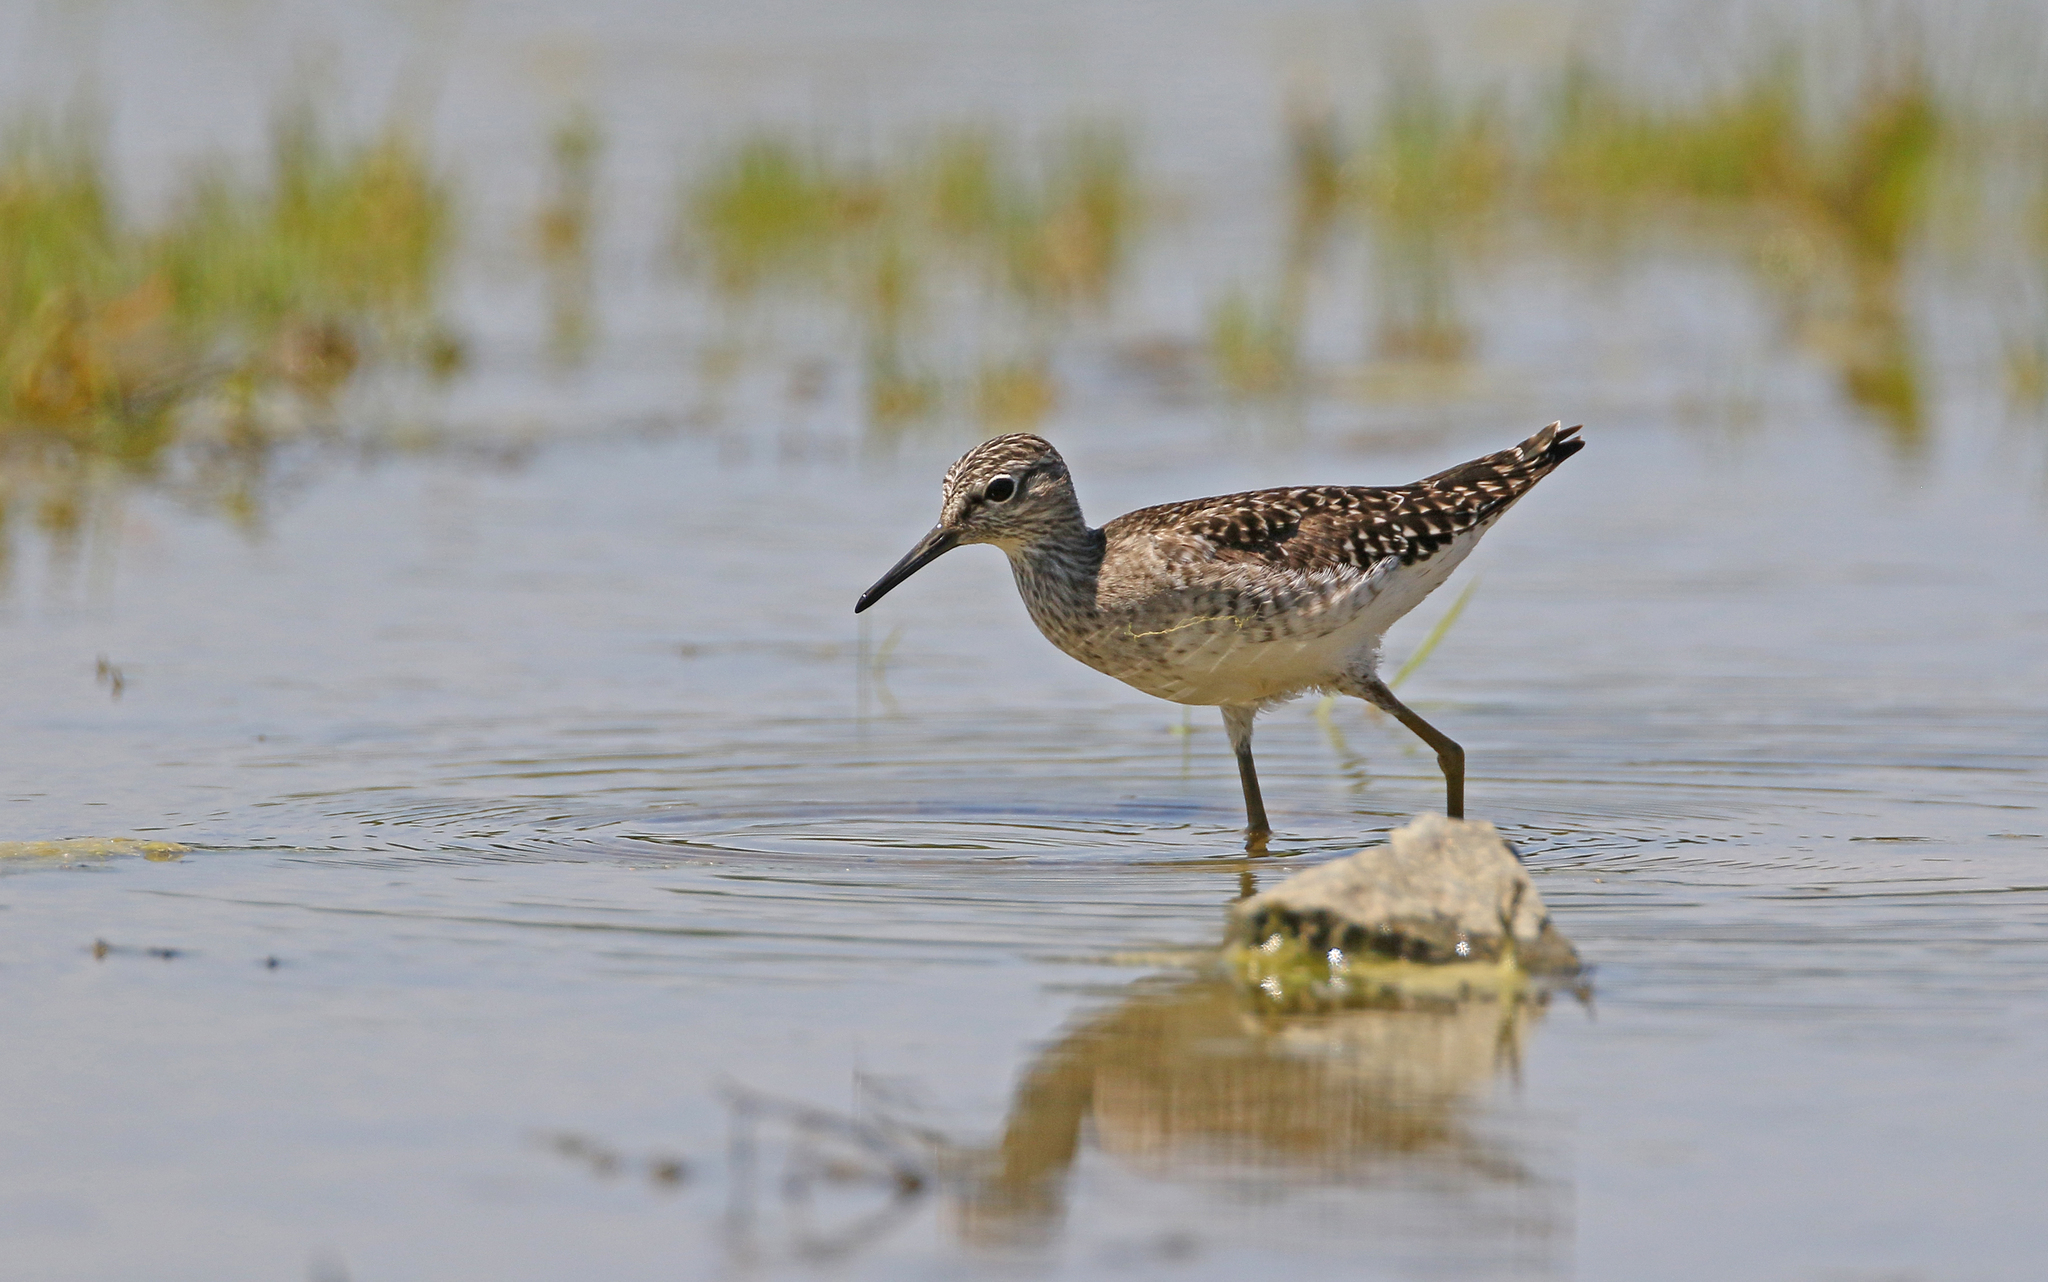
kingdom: Animalia
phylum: Chordata
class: Aves
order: Charadriiformes
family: Scolopacidae
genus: Tringa
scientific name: Tringa glareola
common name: Wood sandpiper
